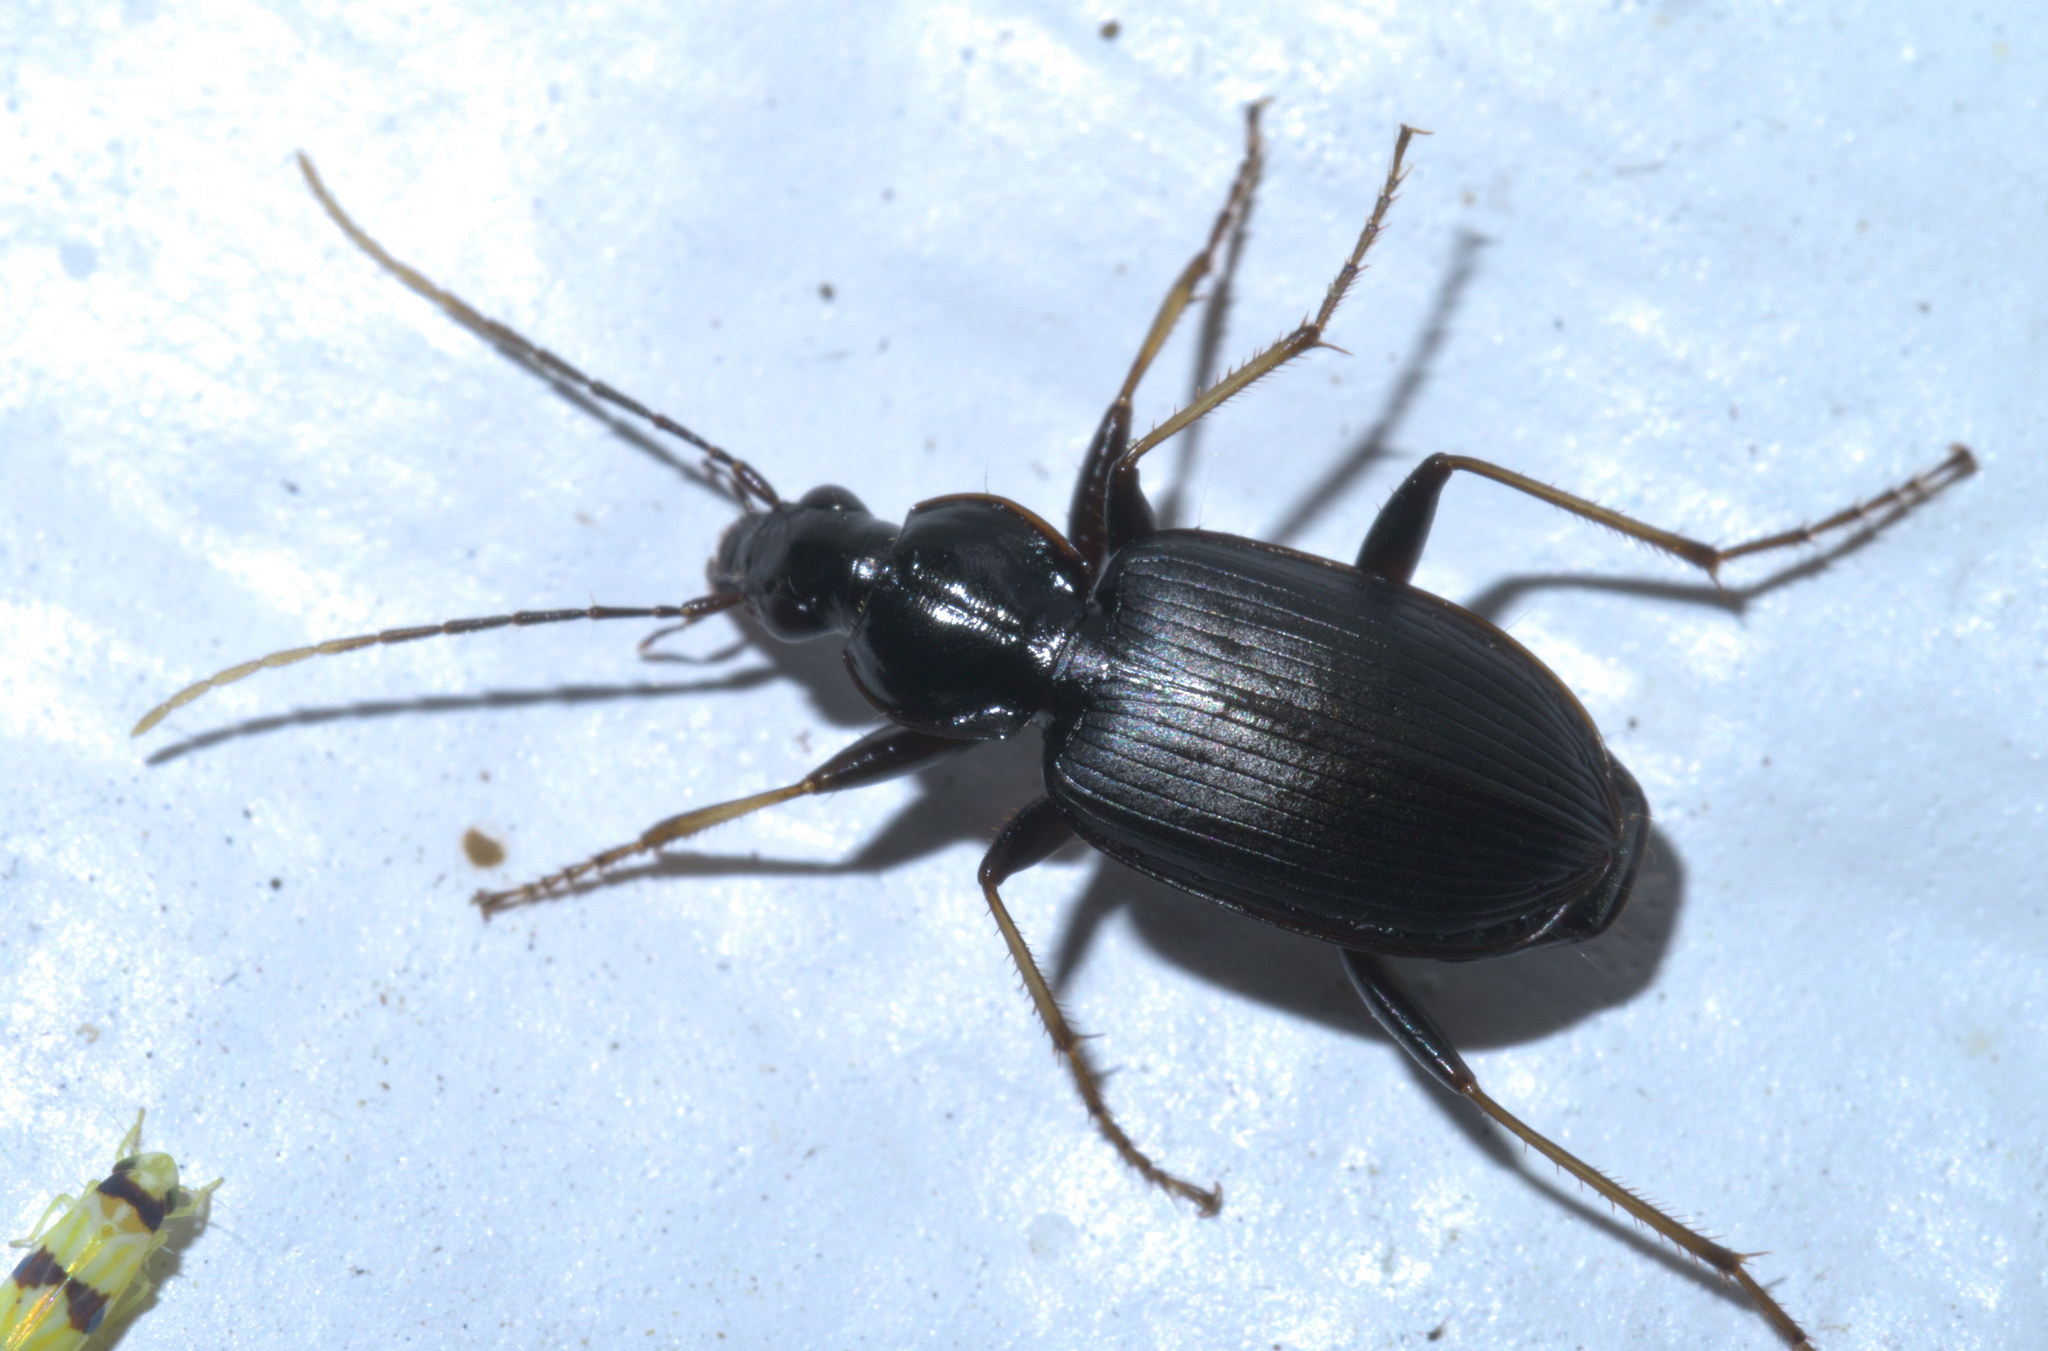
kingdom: Animalia
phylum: Arthropoda
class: Insecta
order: Coleoptera
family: Carabidae
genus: Agonum
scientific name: Agonum albicrus
